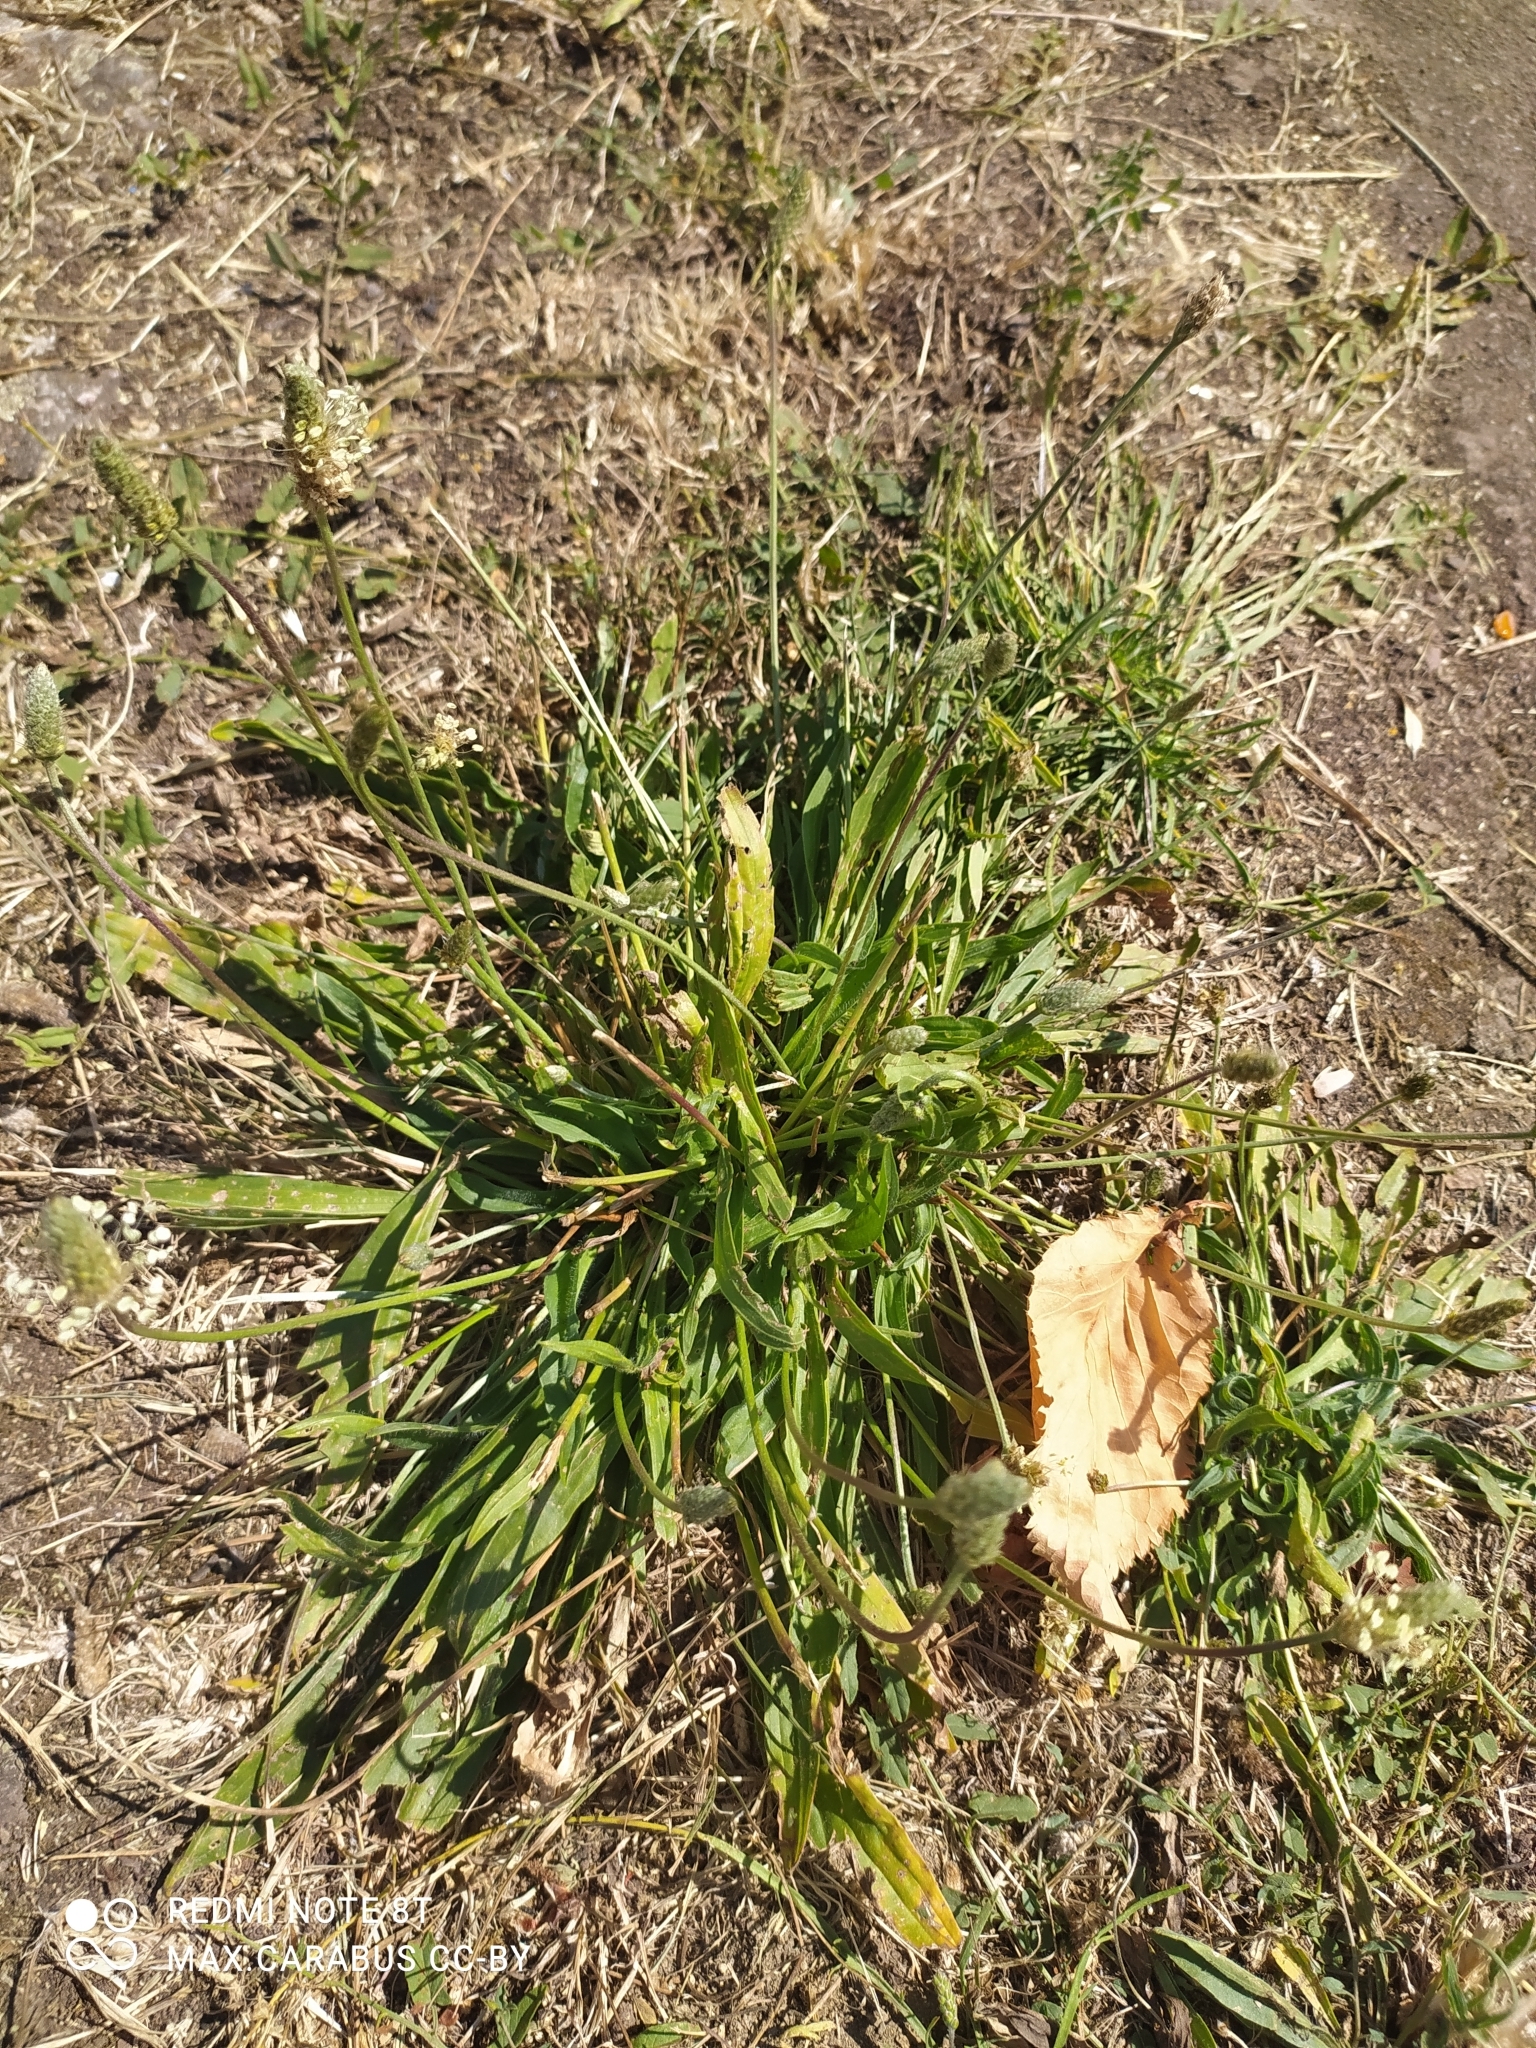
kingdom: Plantae
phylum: Tracheophyta
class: Magnoliopsida
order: Lamiales
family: Plantaginaceae
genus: Plantago
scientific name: Plantago lanceolata
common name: Ribwort plantain
